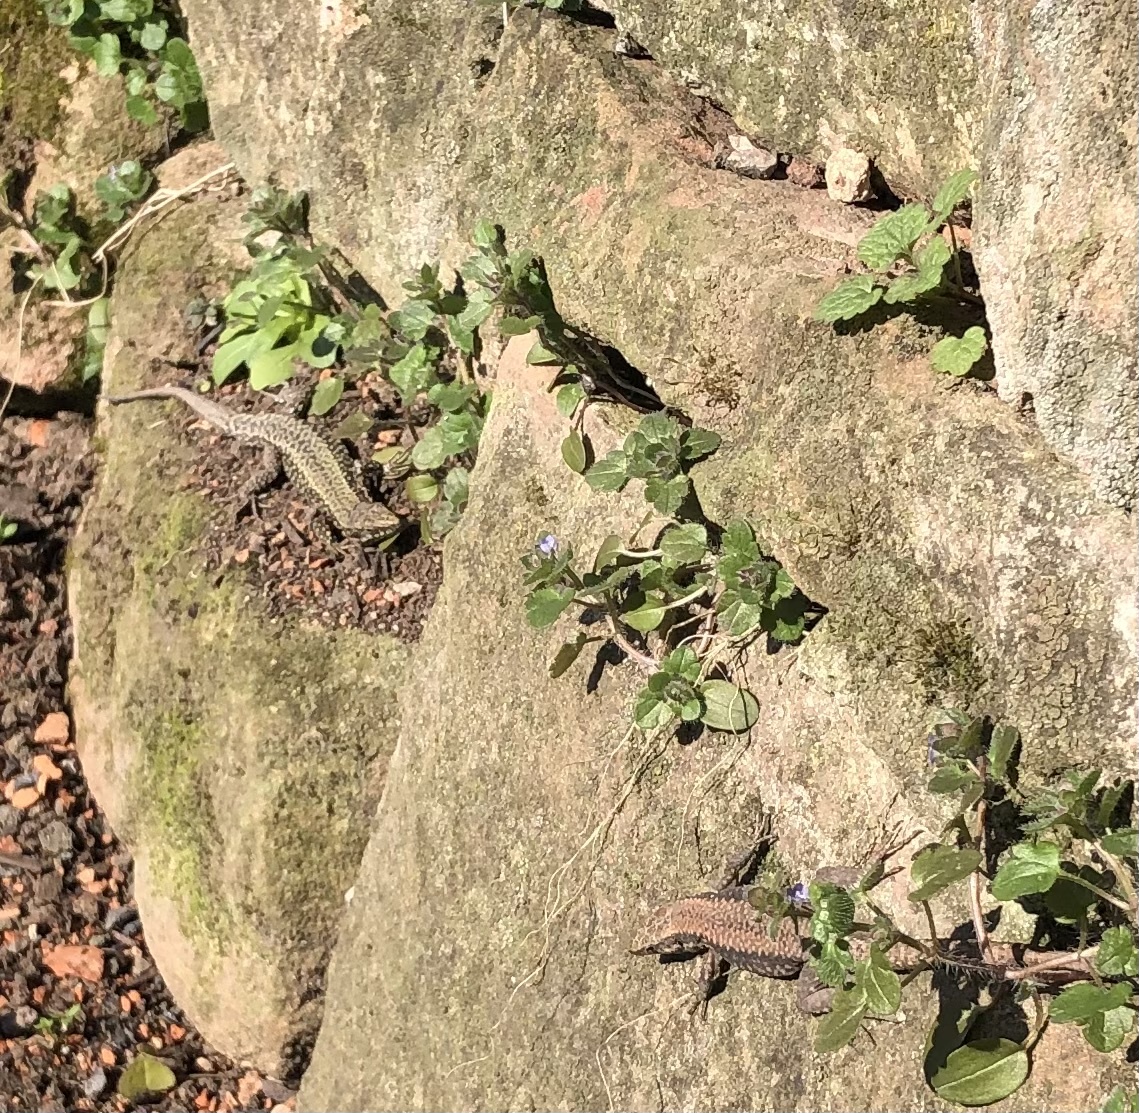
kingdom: Animalia
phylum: Chordata
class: Squamata
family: Lacertidae
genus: Podarcis
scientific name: Podarcis muralis
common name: Common wall lizard
